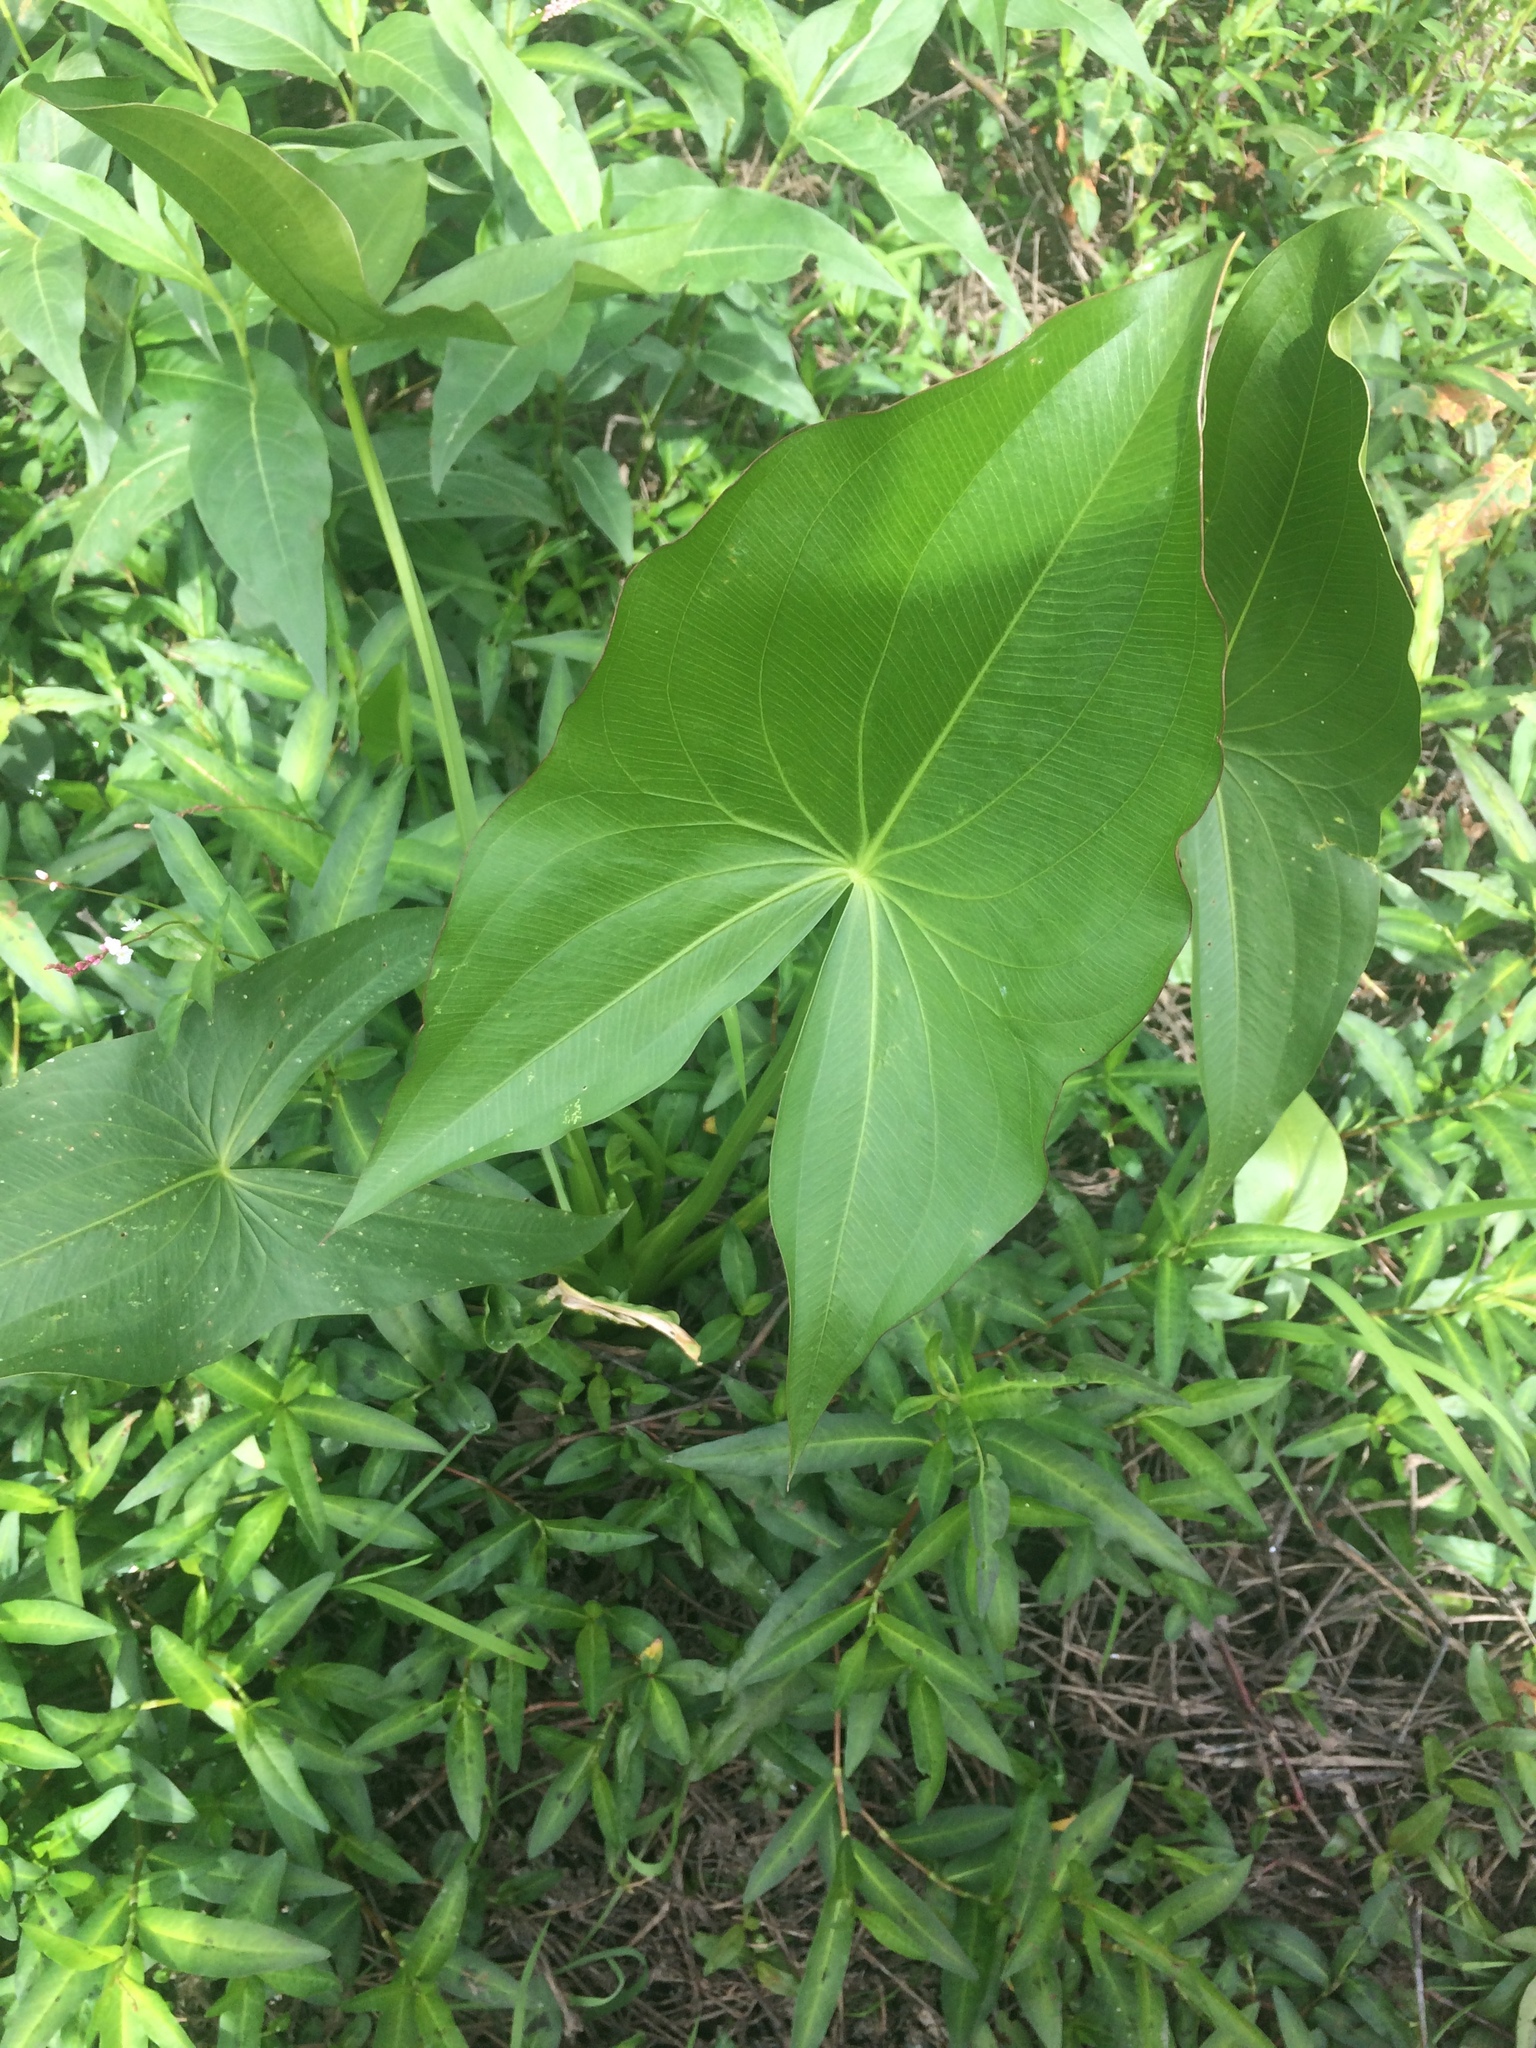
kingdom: Plantae
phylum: Tracheophyta
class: Liliopsida
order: Alismatales
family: Alismataceae
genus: Sagittaria
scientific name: Sagittaria latifolia
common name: Duck-potato
